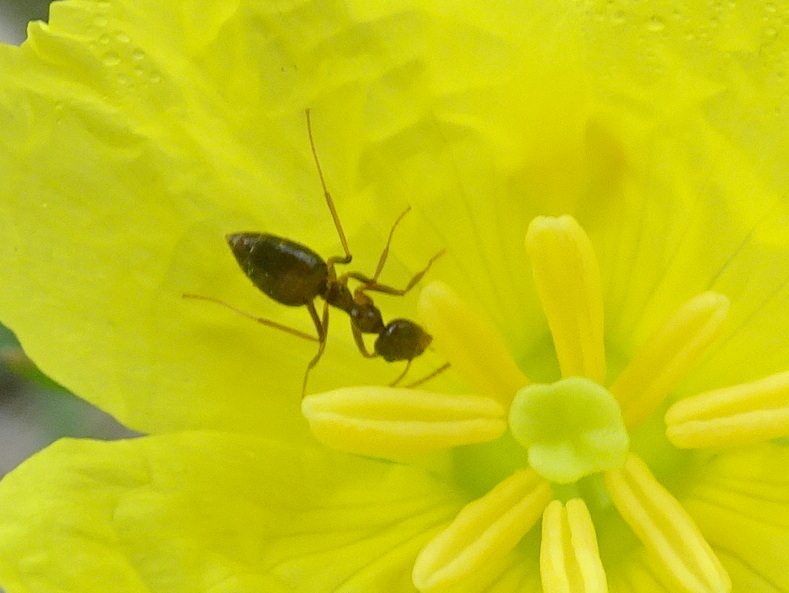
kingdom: Animalia
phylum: Arthropoda
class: Insecta
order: Hymenoptera
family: Formicidae
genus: Prenolepis
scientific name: Prenolepis imparis
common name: Small honey ant
